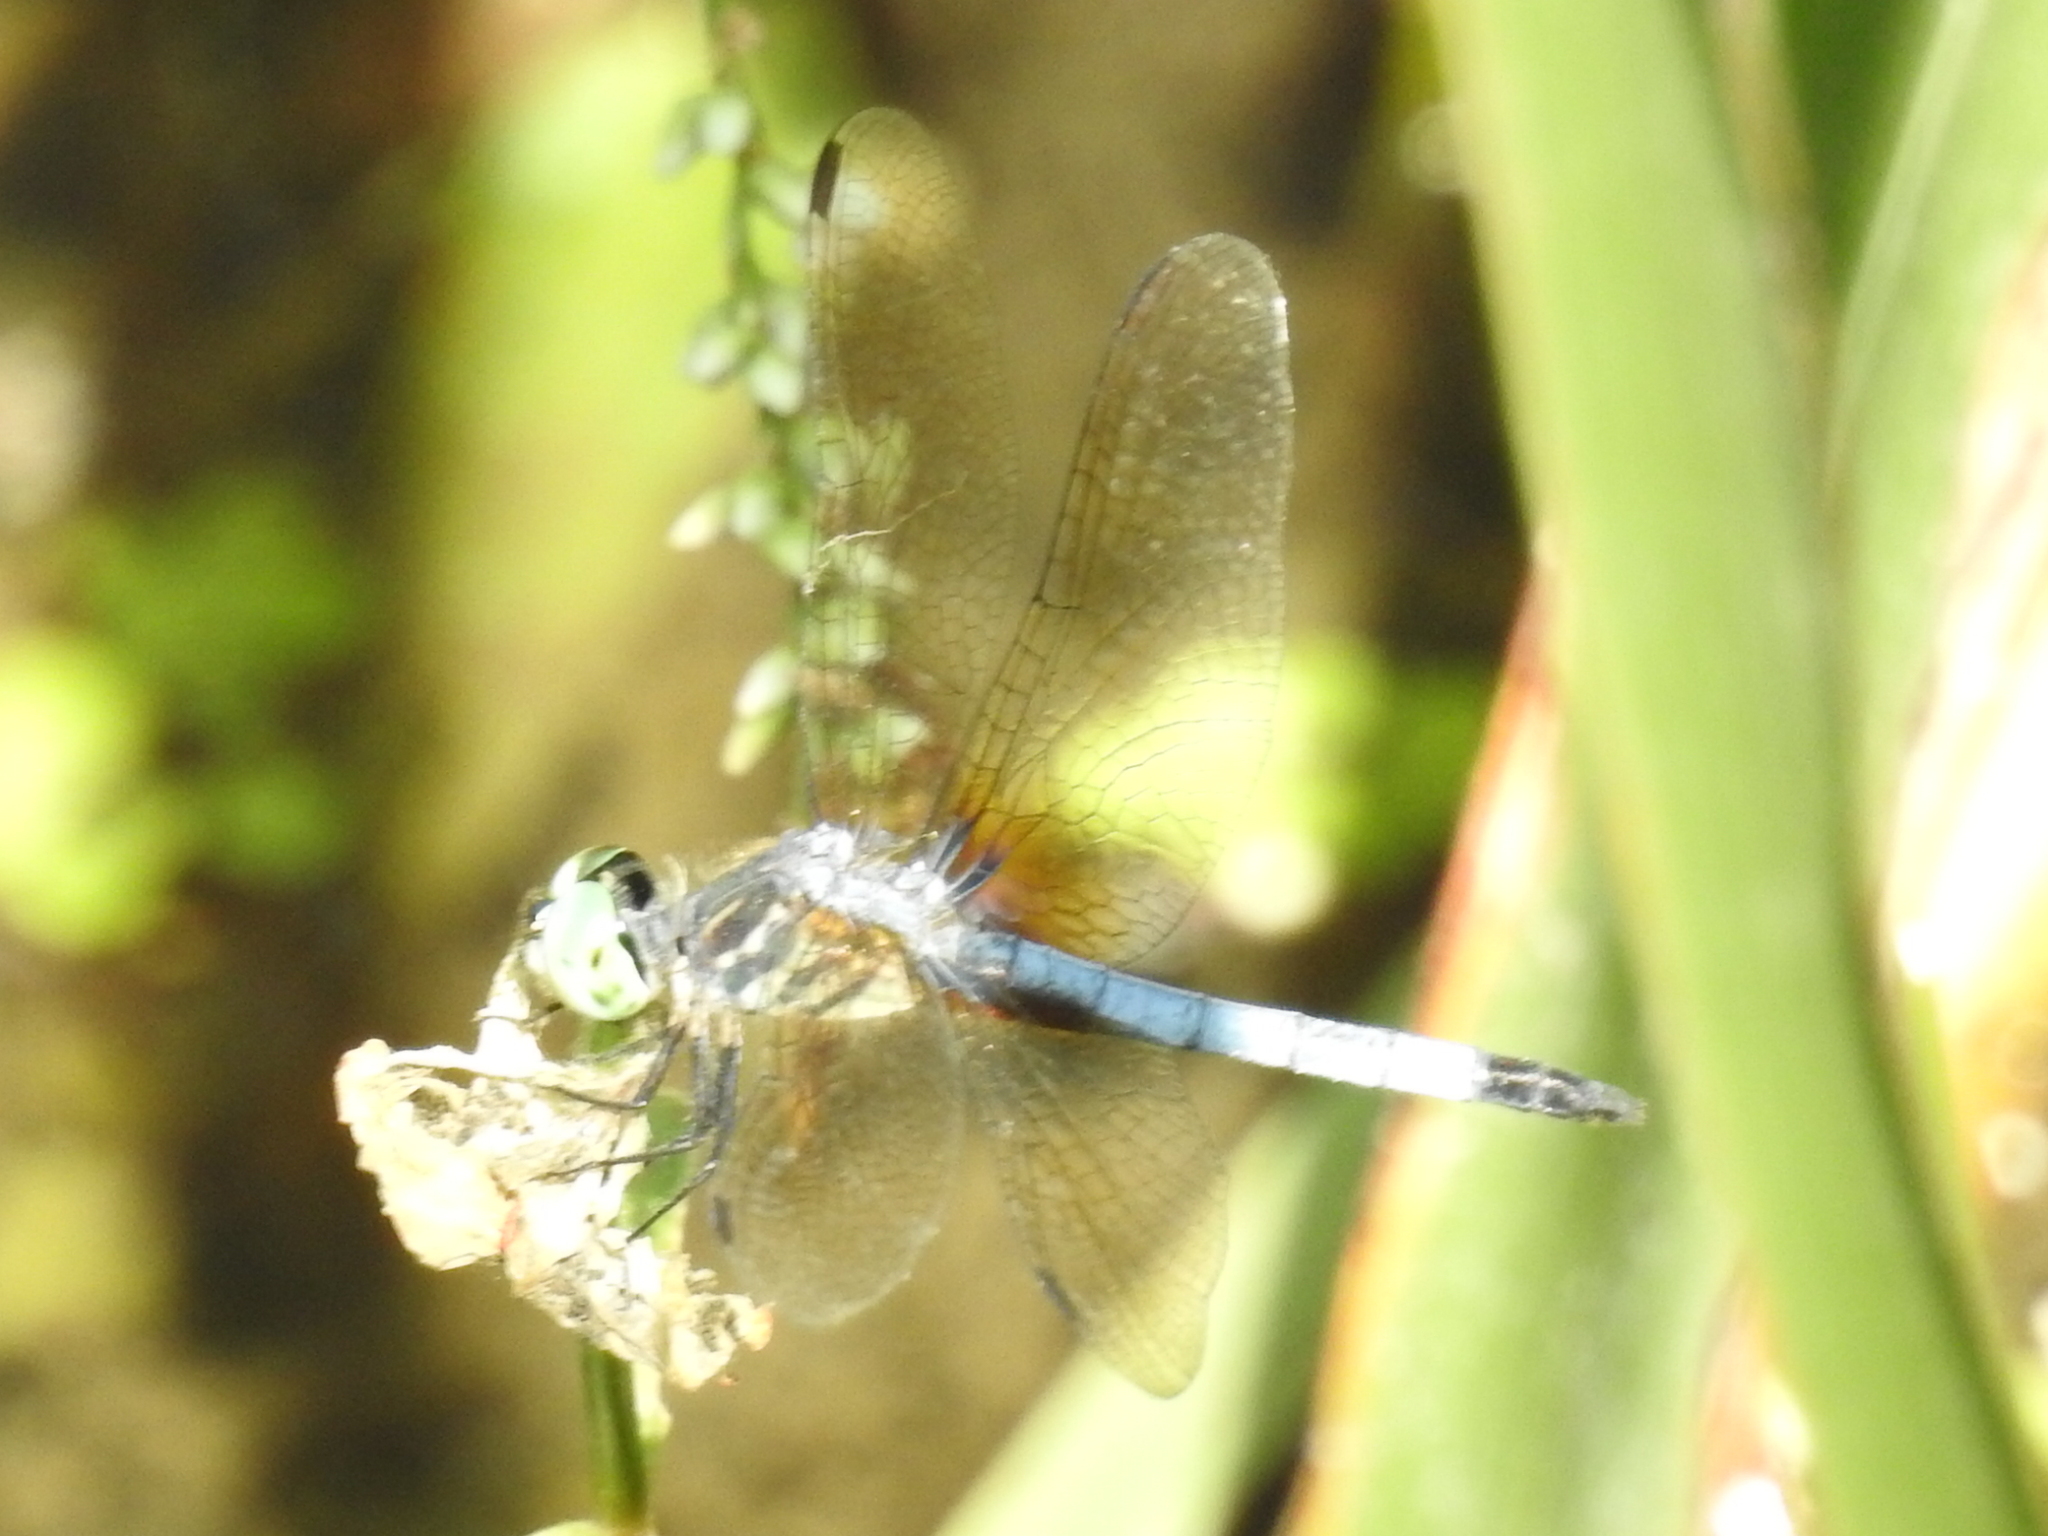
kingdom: Animalia
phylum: Arthropoda
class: Insecta
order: Odonata
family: Libellulidae
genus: Pachydiplax
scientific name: Pachydiplax longipennis
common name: Blue dasher
